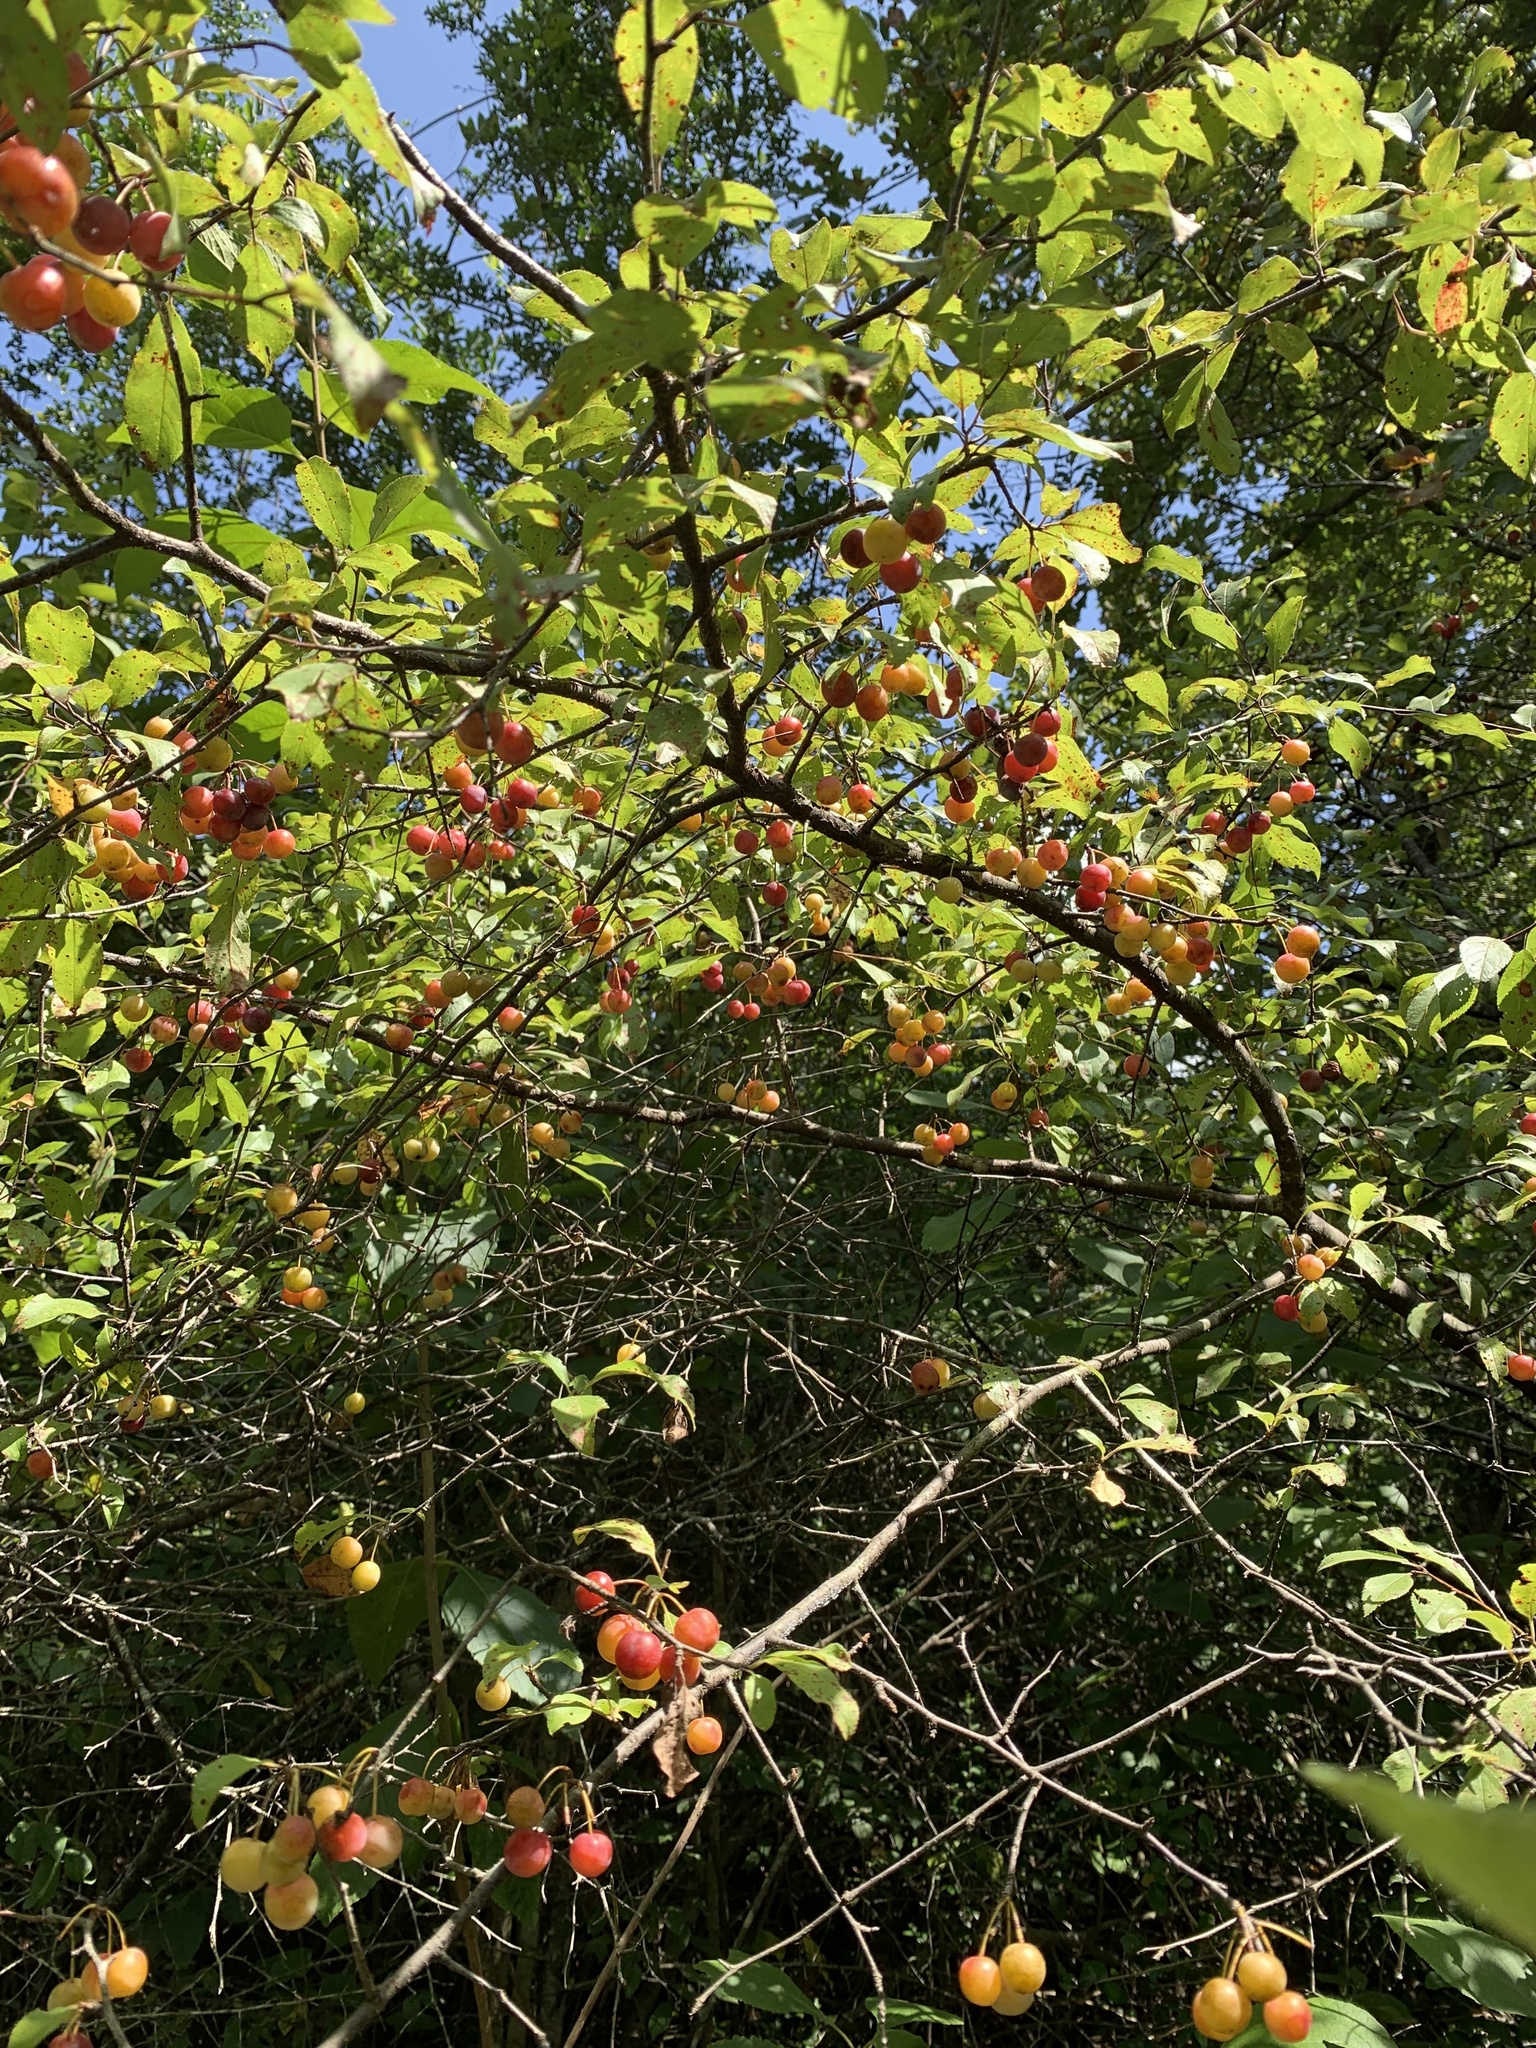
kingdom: Plantae
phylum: Tracheophyta
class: Magnoliopsida
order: Rosales
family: Rosaceae
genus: Prunus
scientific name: Prunus umbellata
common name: Allegheny plum
